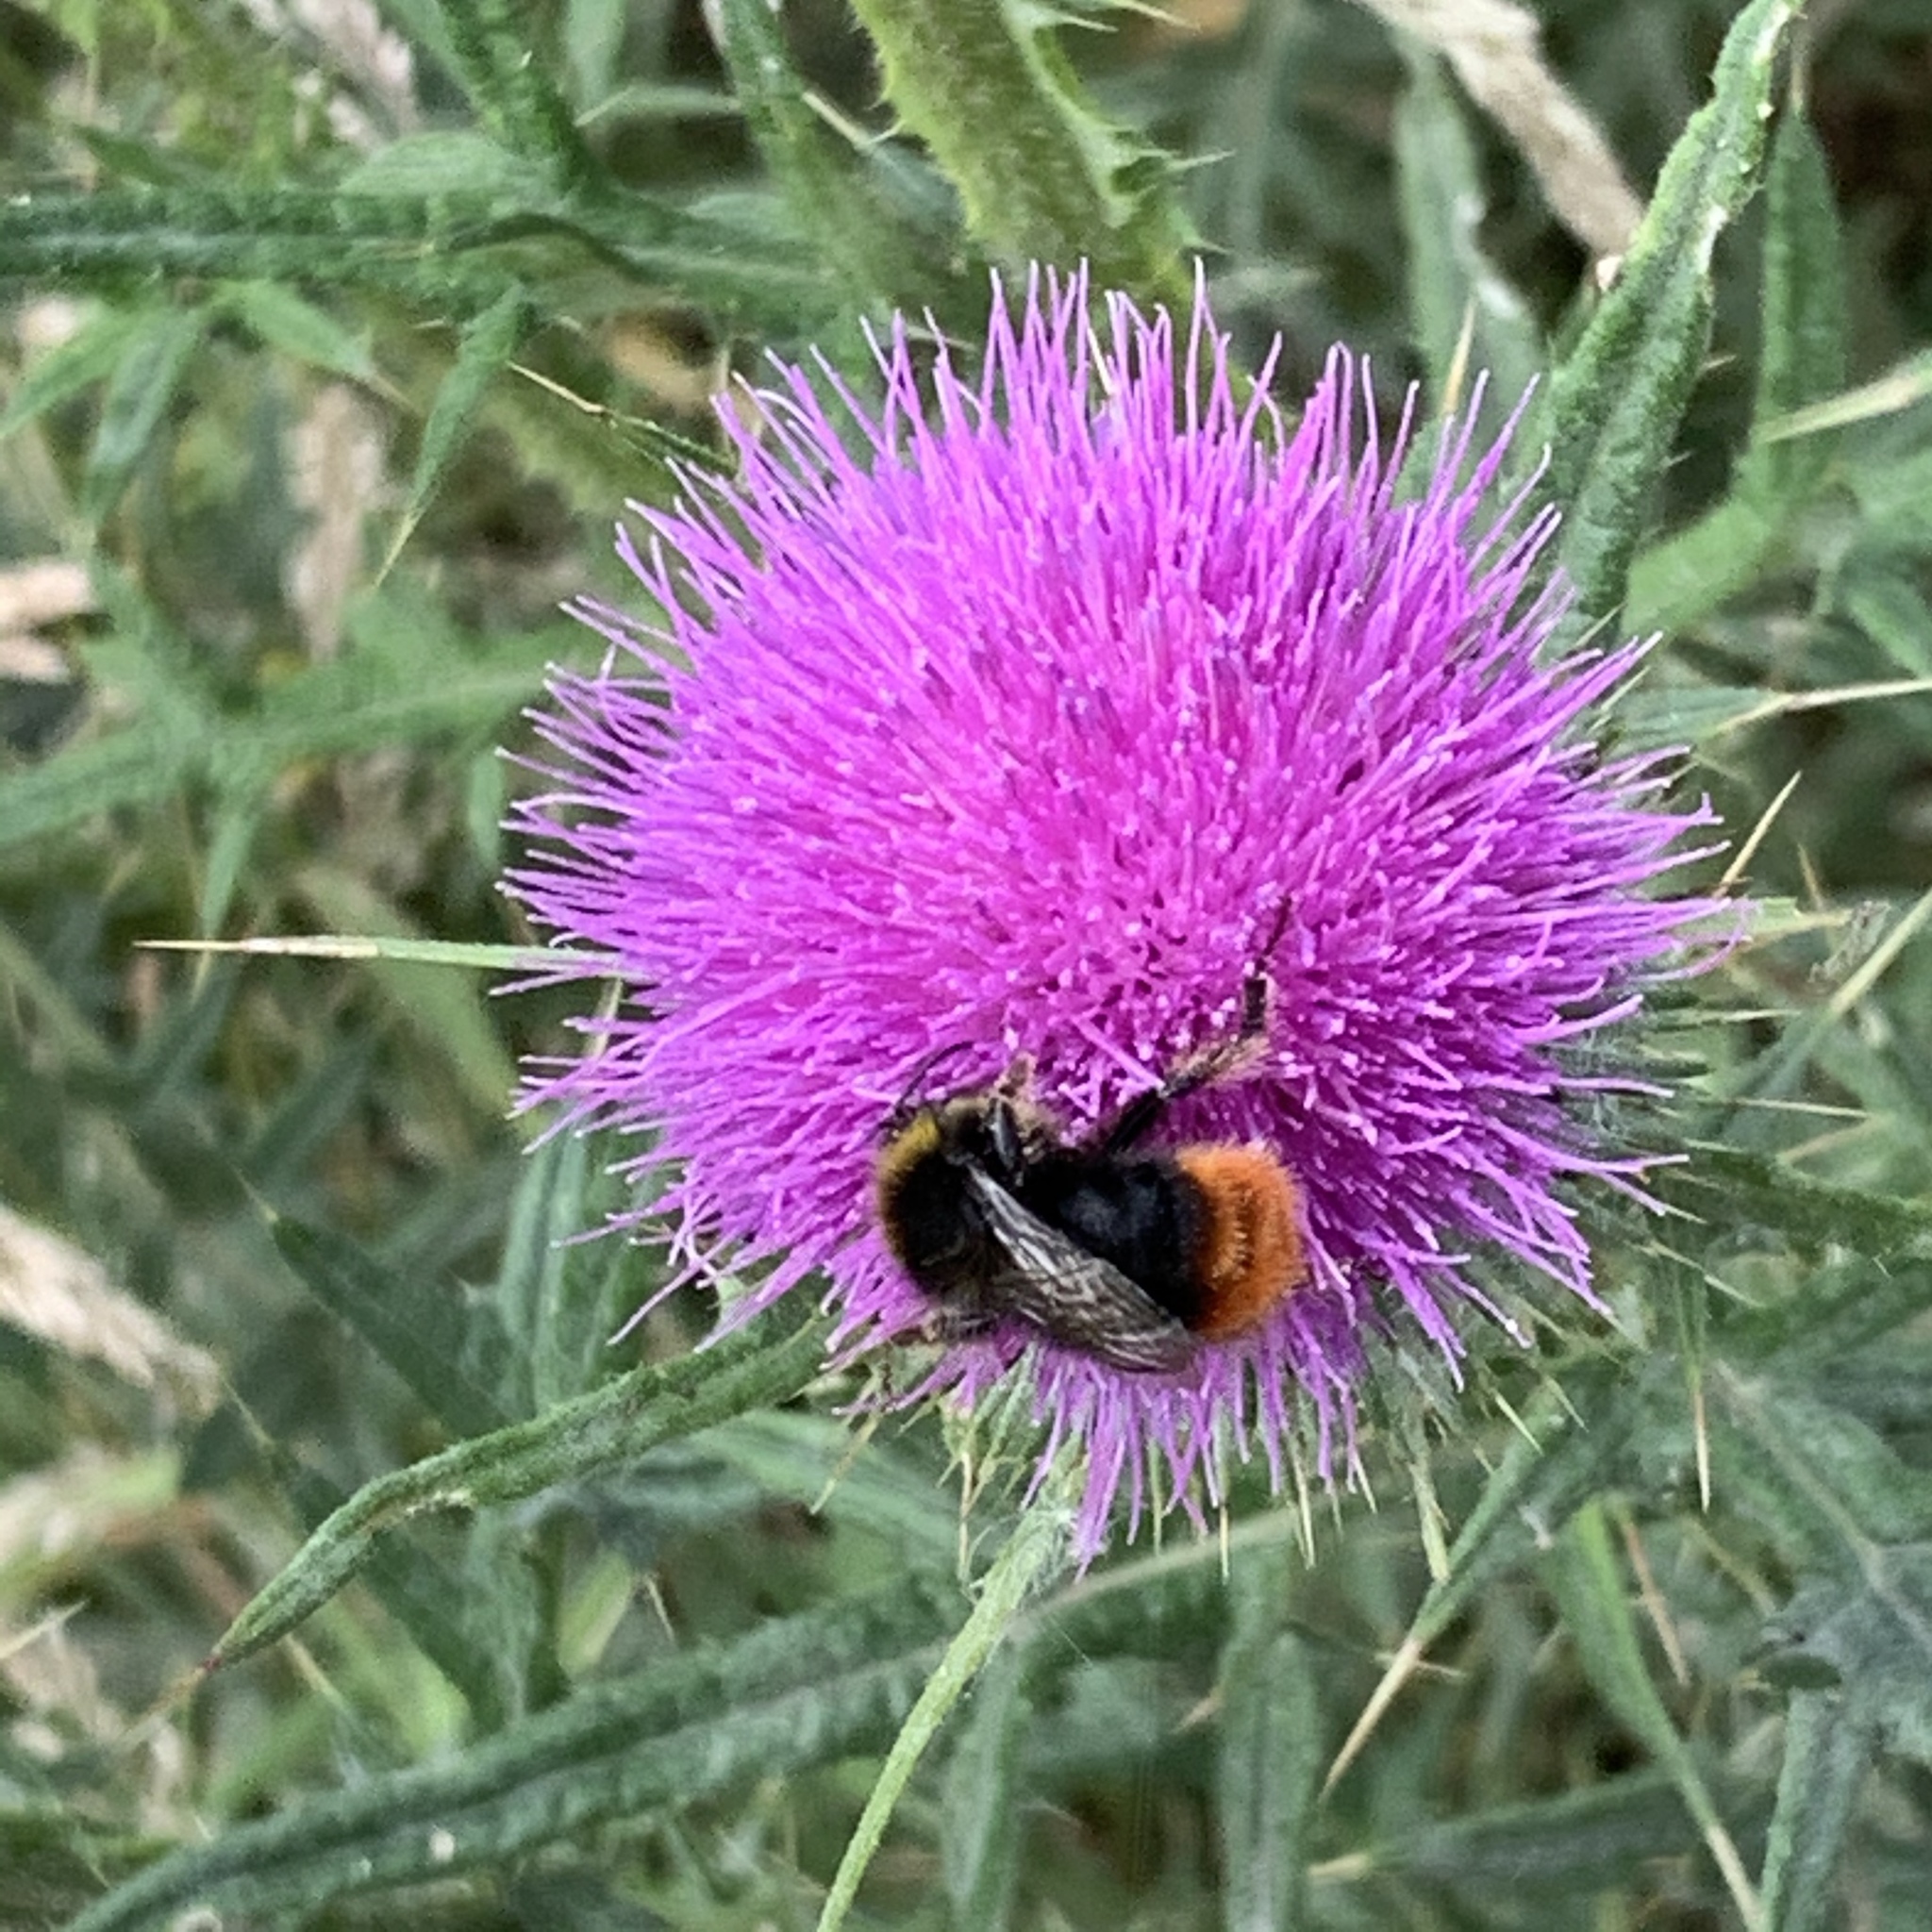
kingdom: Animalia
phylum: Arthropoda
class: Insecta
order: Hymenoptera
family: Apidae
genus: Bombus
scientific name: Bombus lapidarius
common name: Large red-tailed humble-bee
